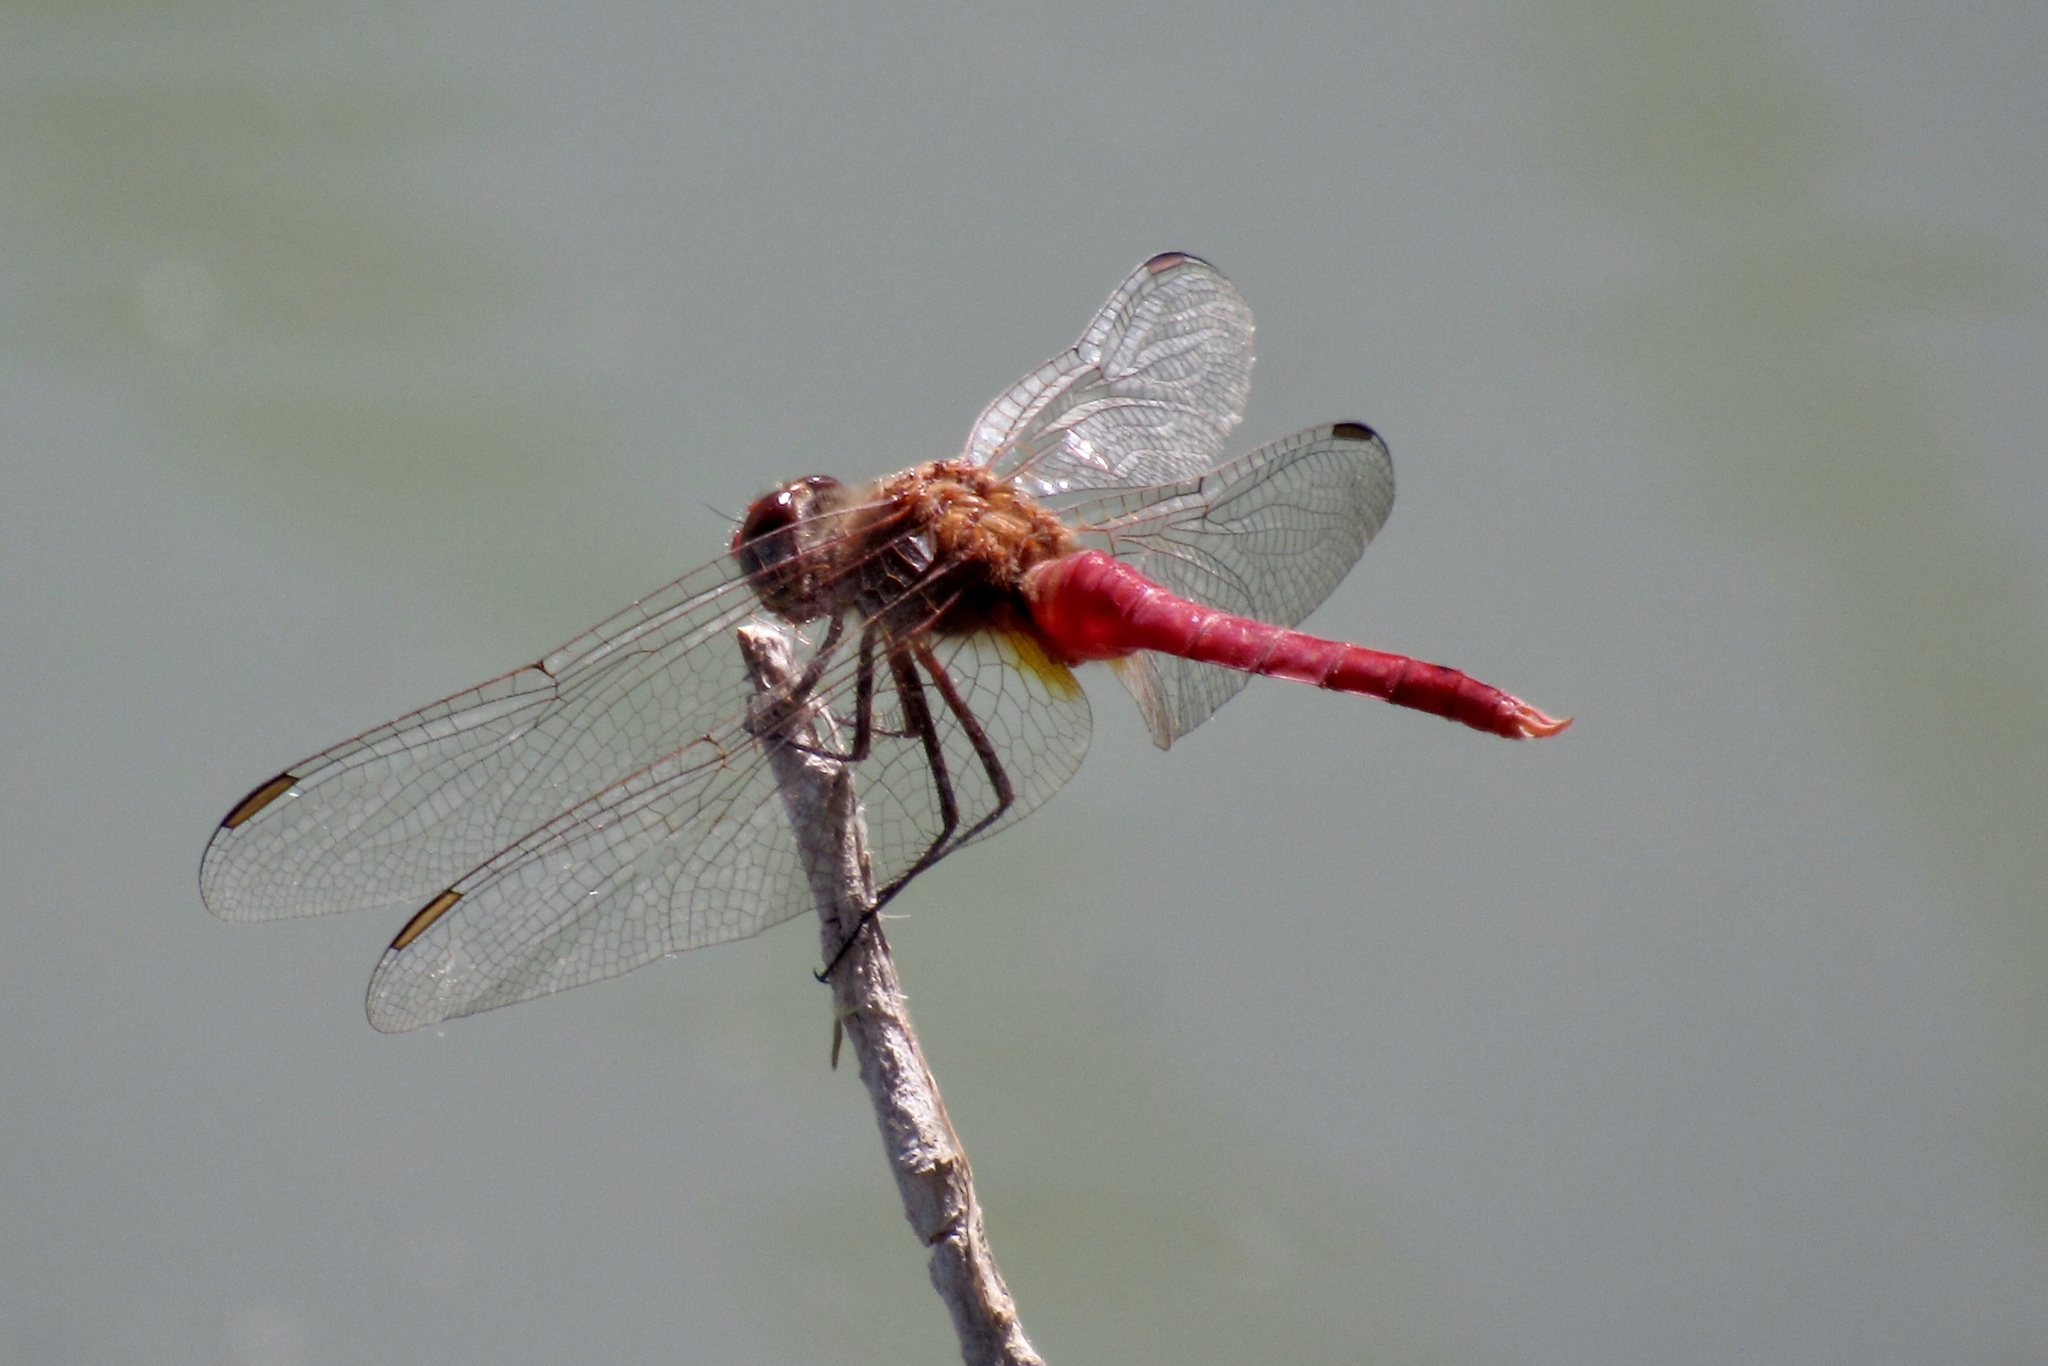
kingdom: Animalia
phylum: Arthropoda
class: Insecta
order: Odonata
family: Libellulidae
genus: Brachymesia
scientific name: Brachymesia furcata
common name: Red-taled pennant
